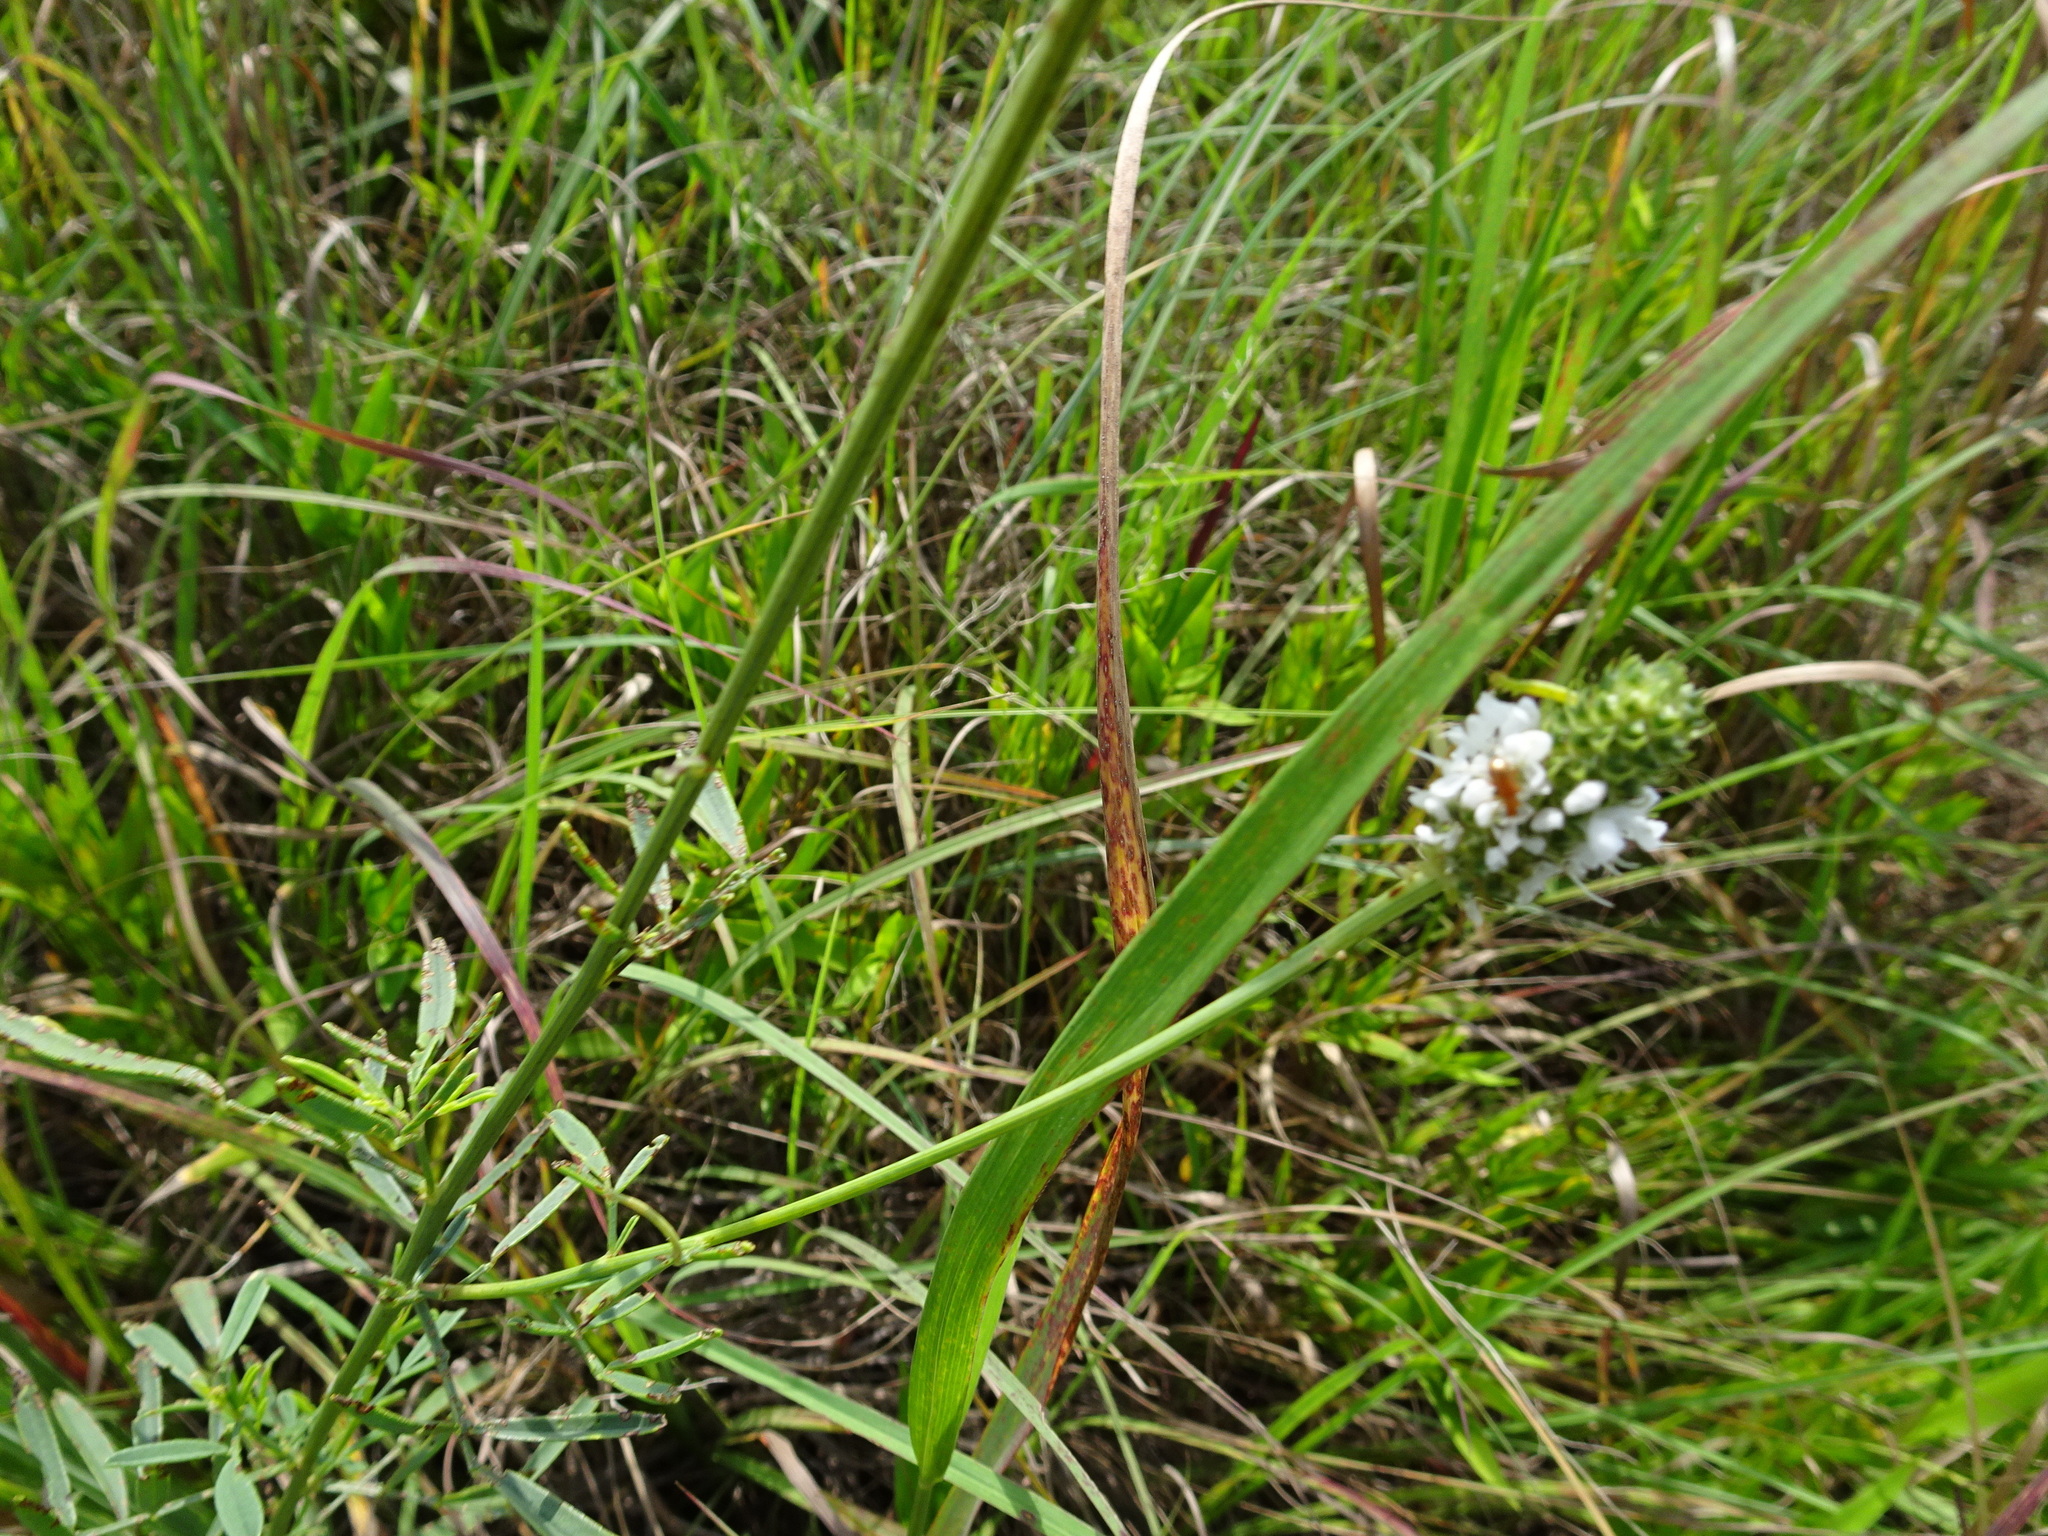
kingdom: Plantae
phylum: Tracheophyta
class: Magnoliopsida
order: Fabales
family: Fabaceae
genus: Dalea
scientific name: Dalea candida
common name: White prairie-clover
